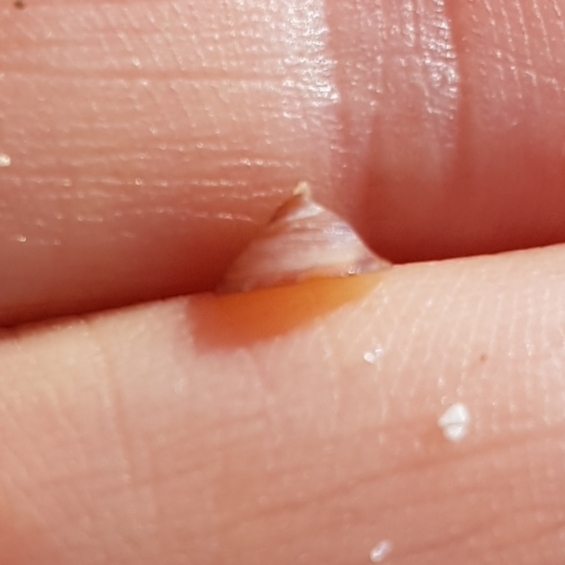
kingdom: Animalia
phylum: Mollusca
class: Gastropoda
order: Littorinimorpha
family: Calyptraeidae
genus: Calyptraea
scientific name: Calyptraea chinensis
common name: Chinaman's hat
